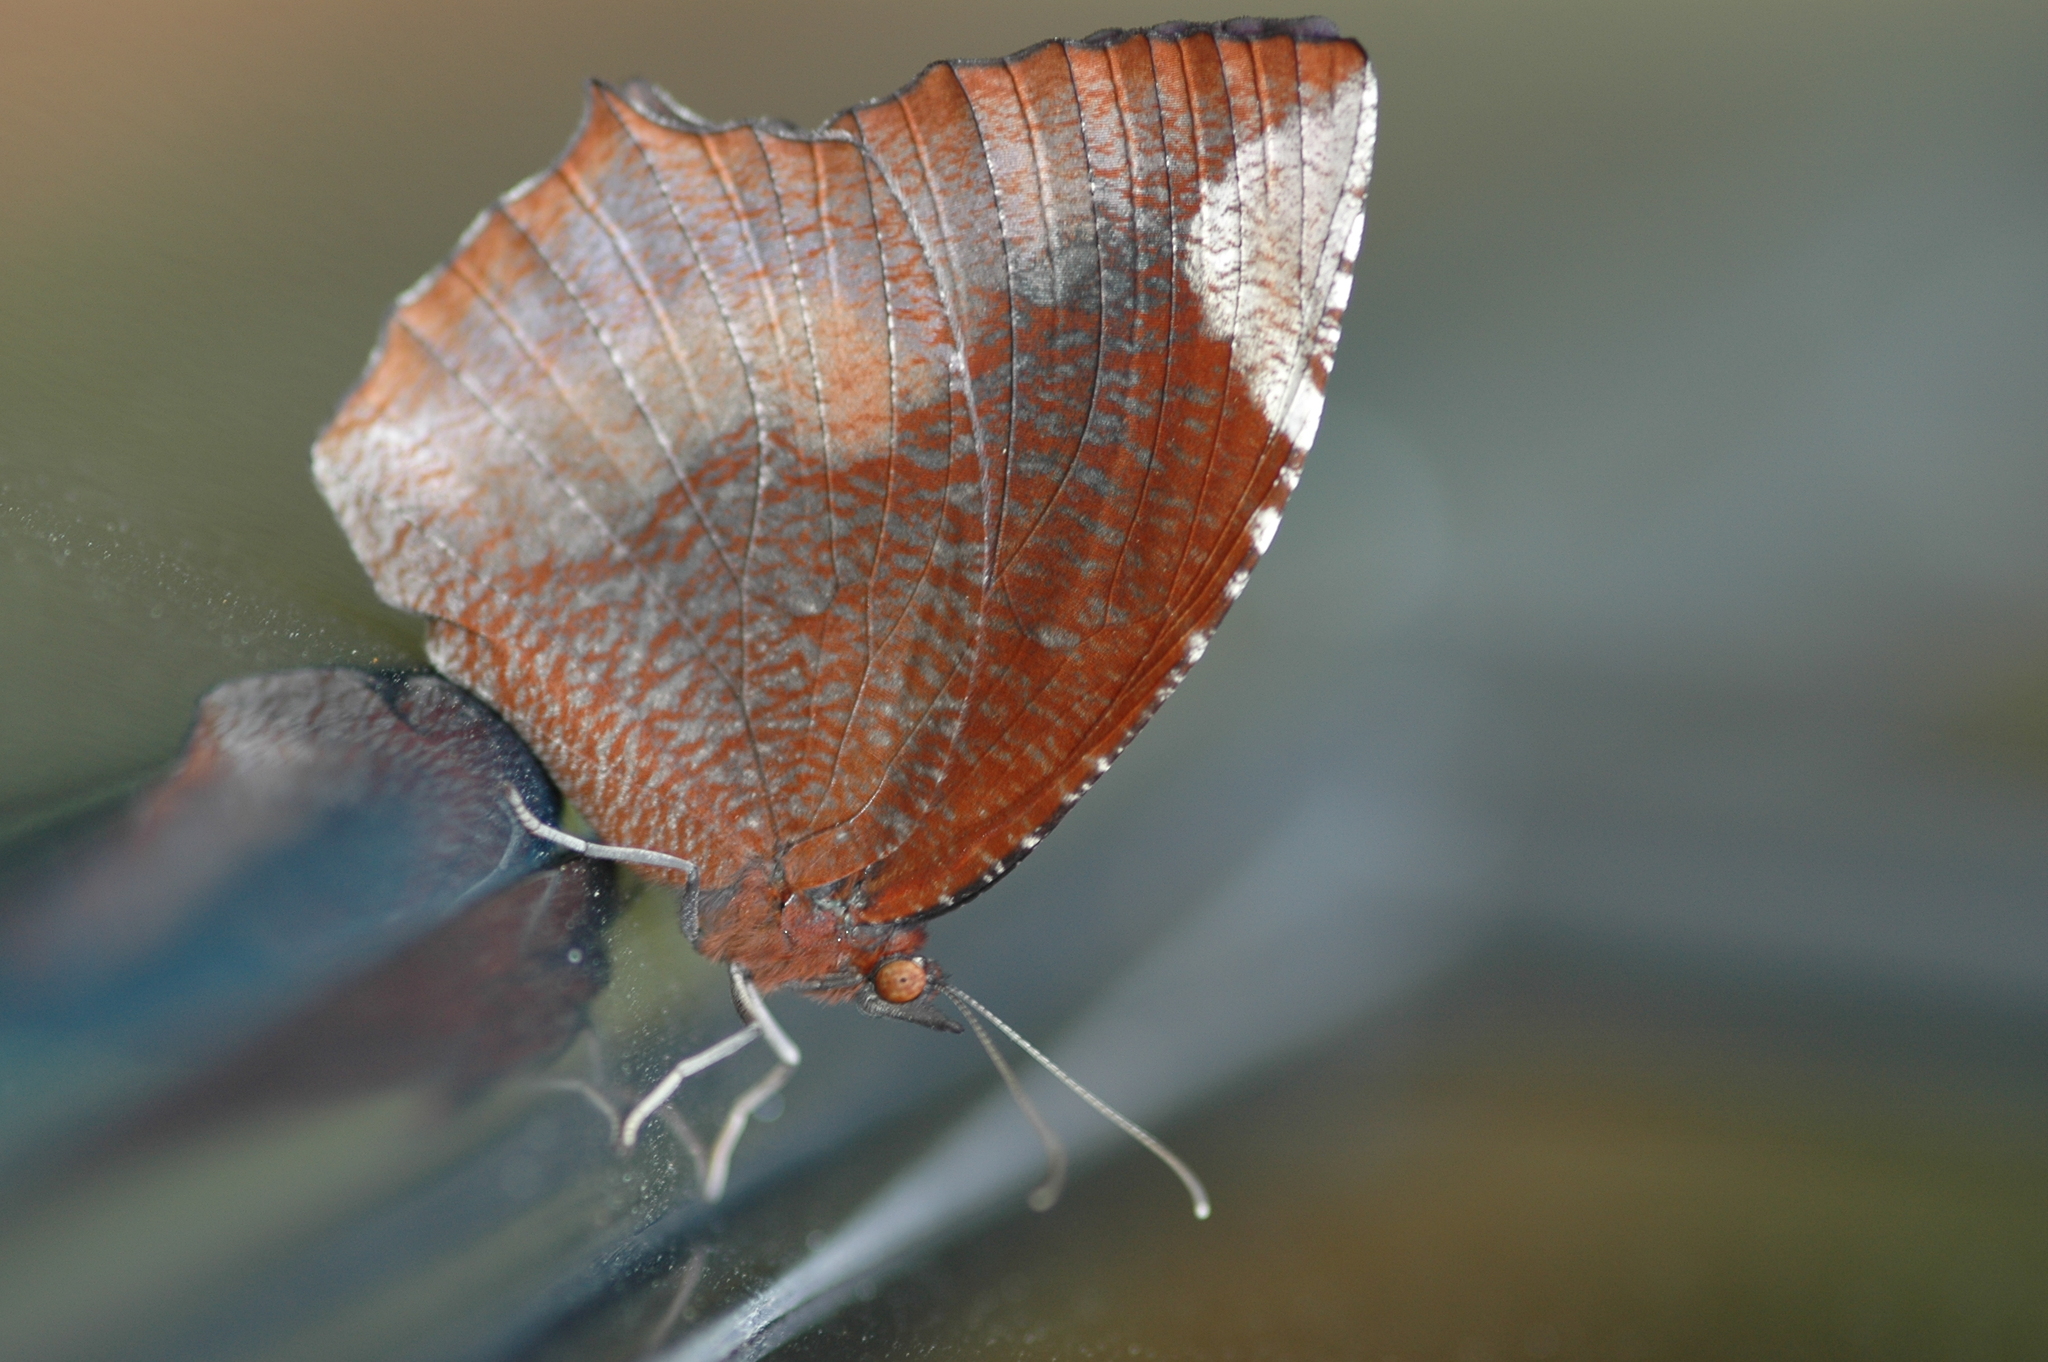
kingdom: Animalia
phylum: Arthropoda
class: Insecta
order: Lepidoptera
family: Nymphalidae
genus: Elymnias
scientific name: Elymnias hypermnestra
